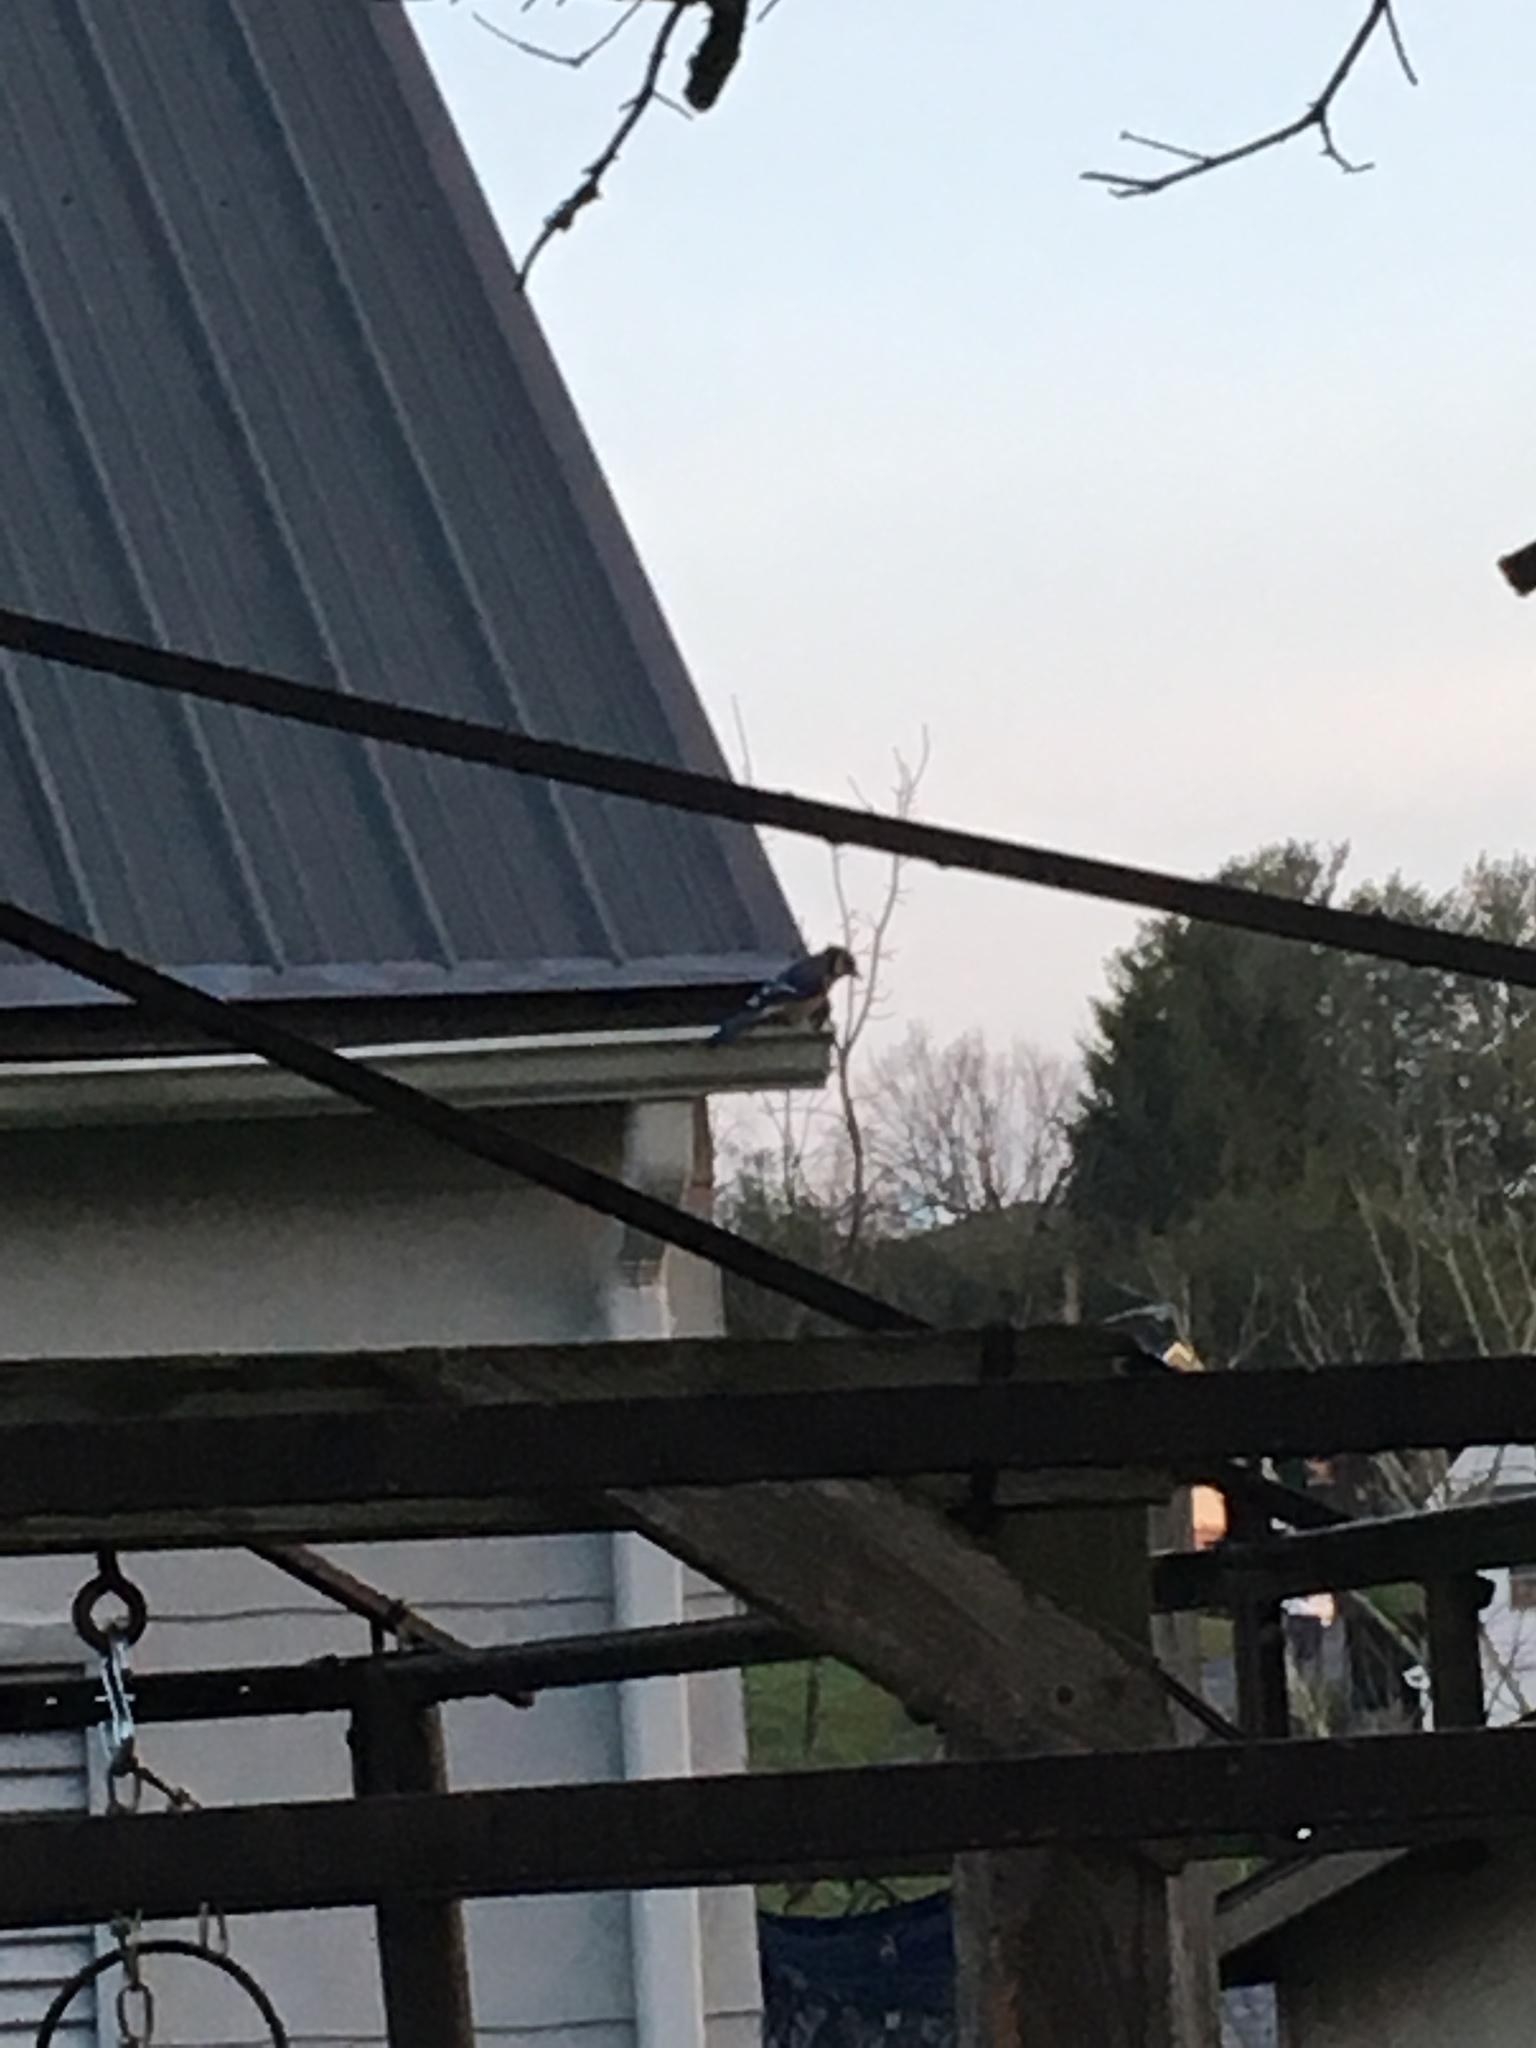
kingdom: Animalia
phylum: Chordata
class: Aves
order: Passeriformes
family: Corvidae
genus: Cyanocitta
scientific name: Cyanocitta cristata
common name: Blue jay
